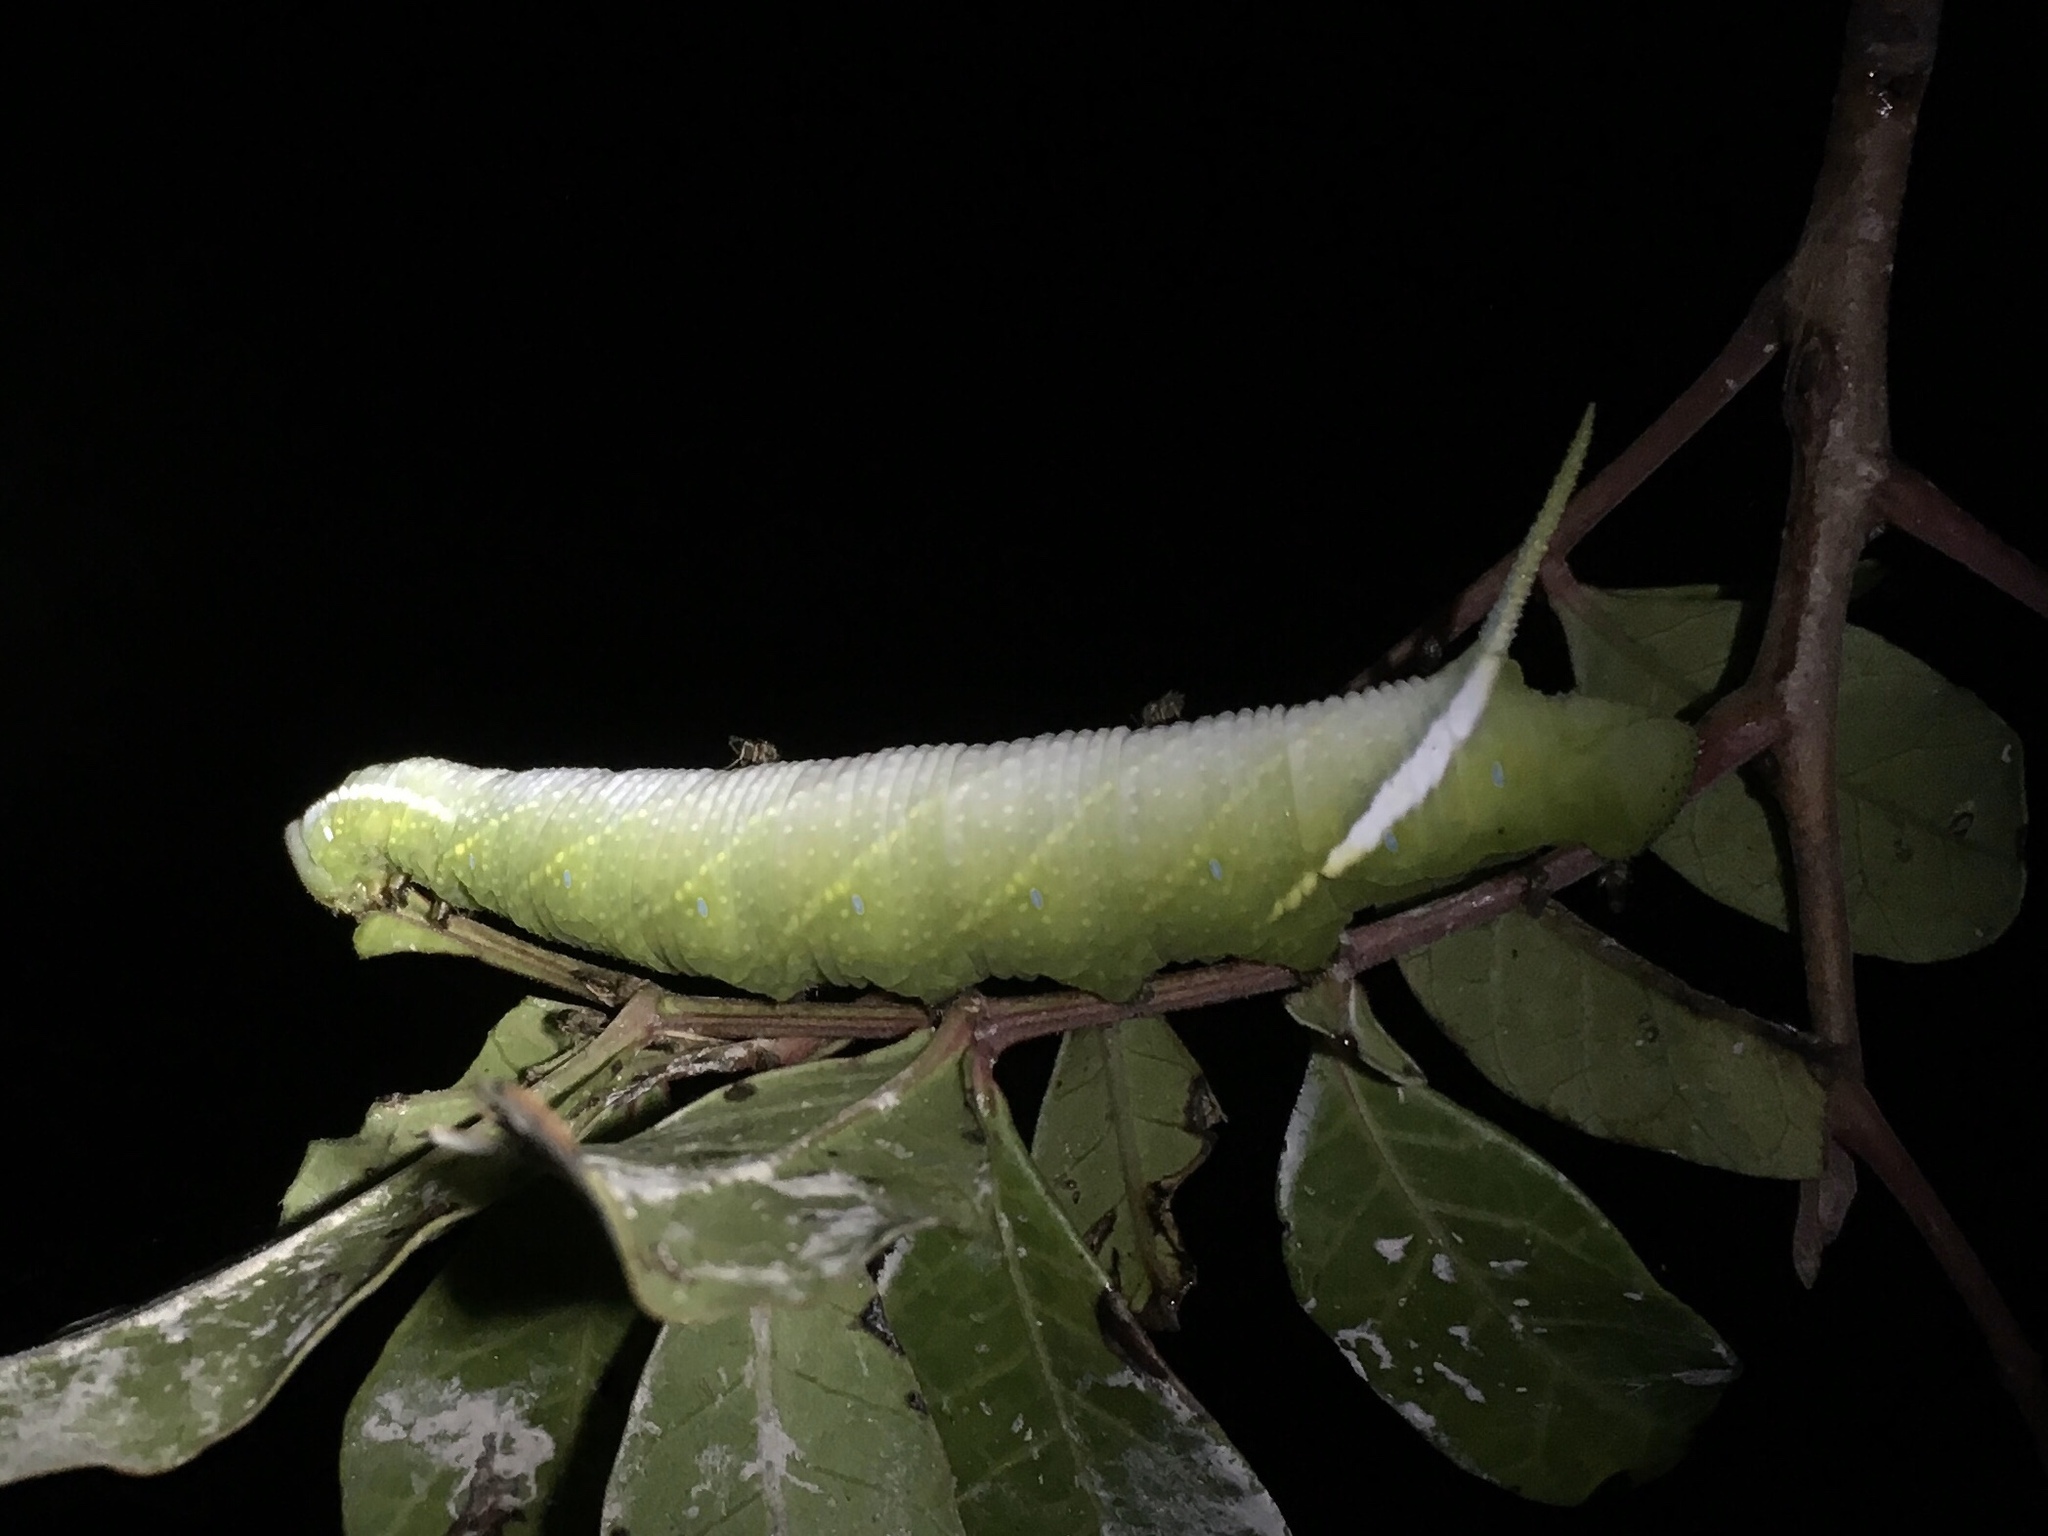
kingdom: Animalia
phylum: Arthropoda
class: Insecta
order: Lepidoptera
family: Sphingidae
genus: Protambulyx
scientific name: Protambulyx strigilis
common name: Streaked sphinx
